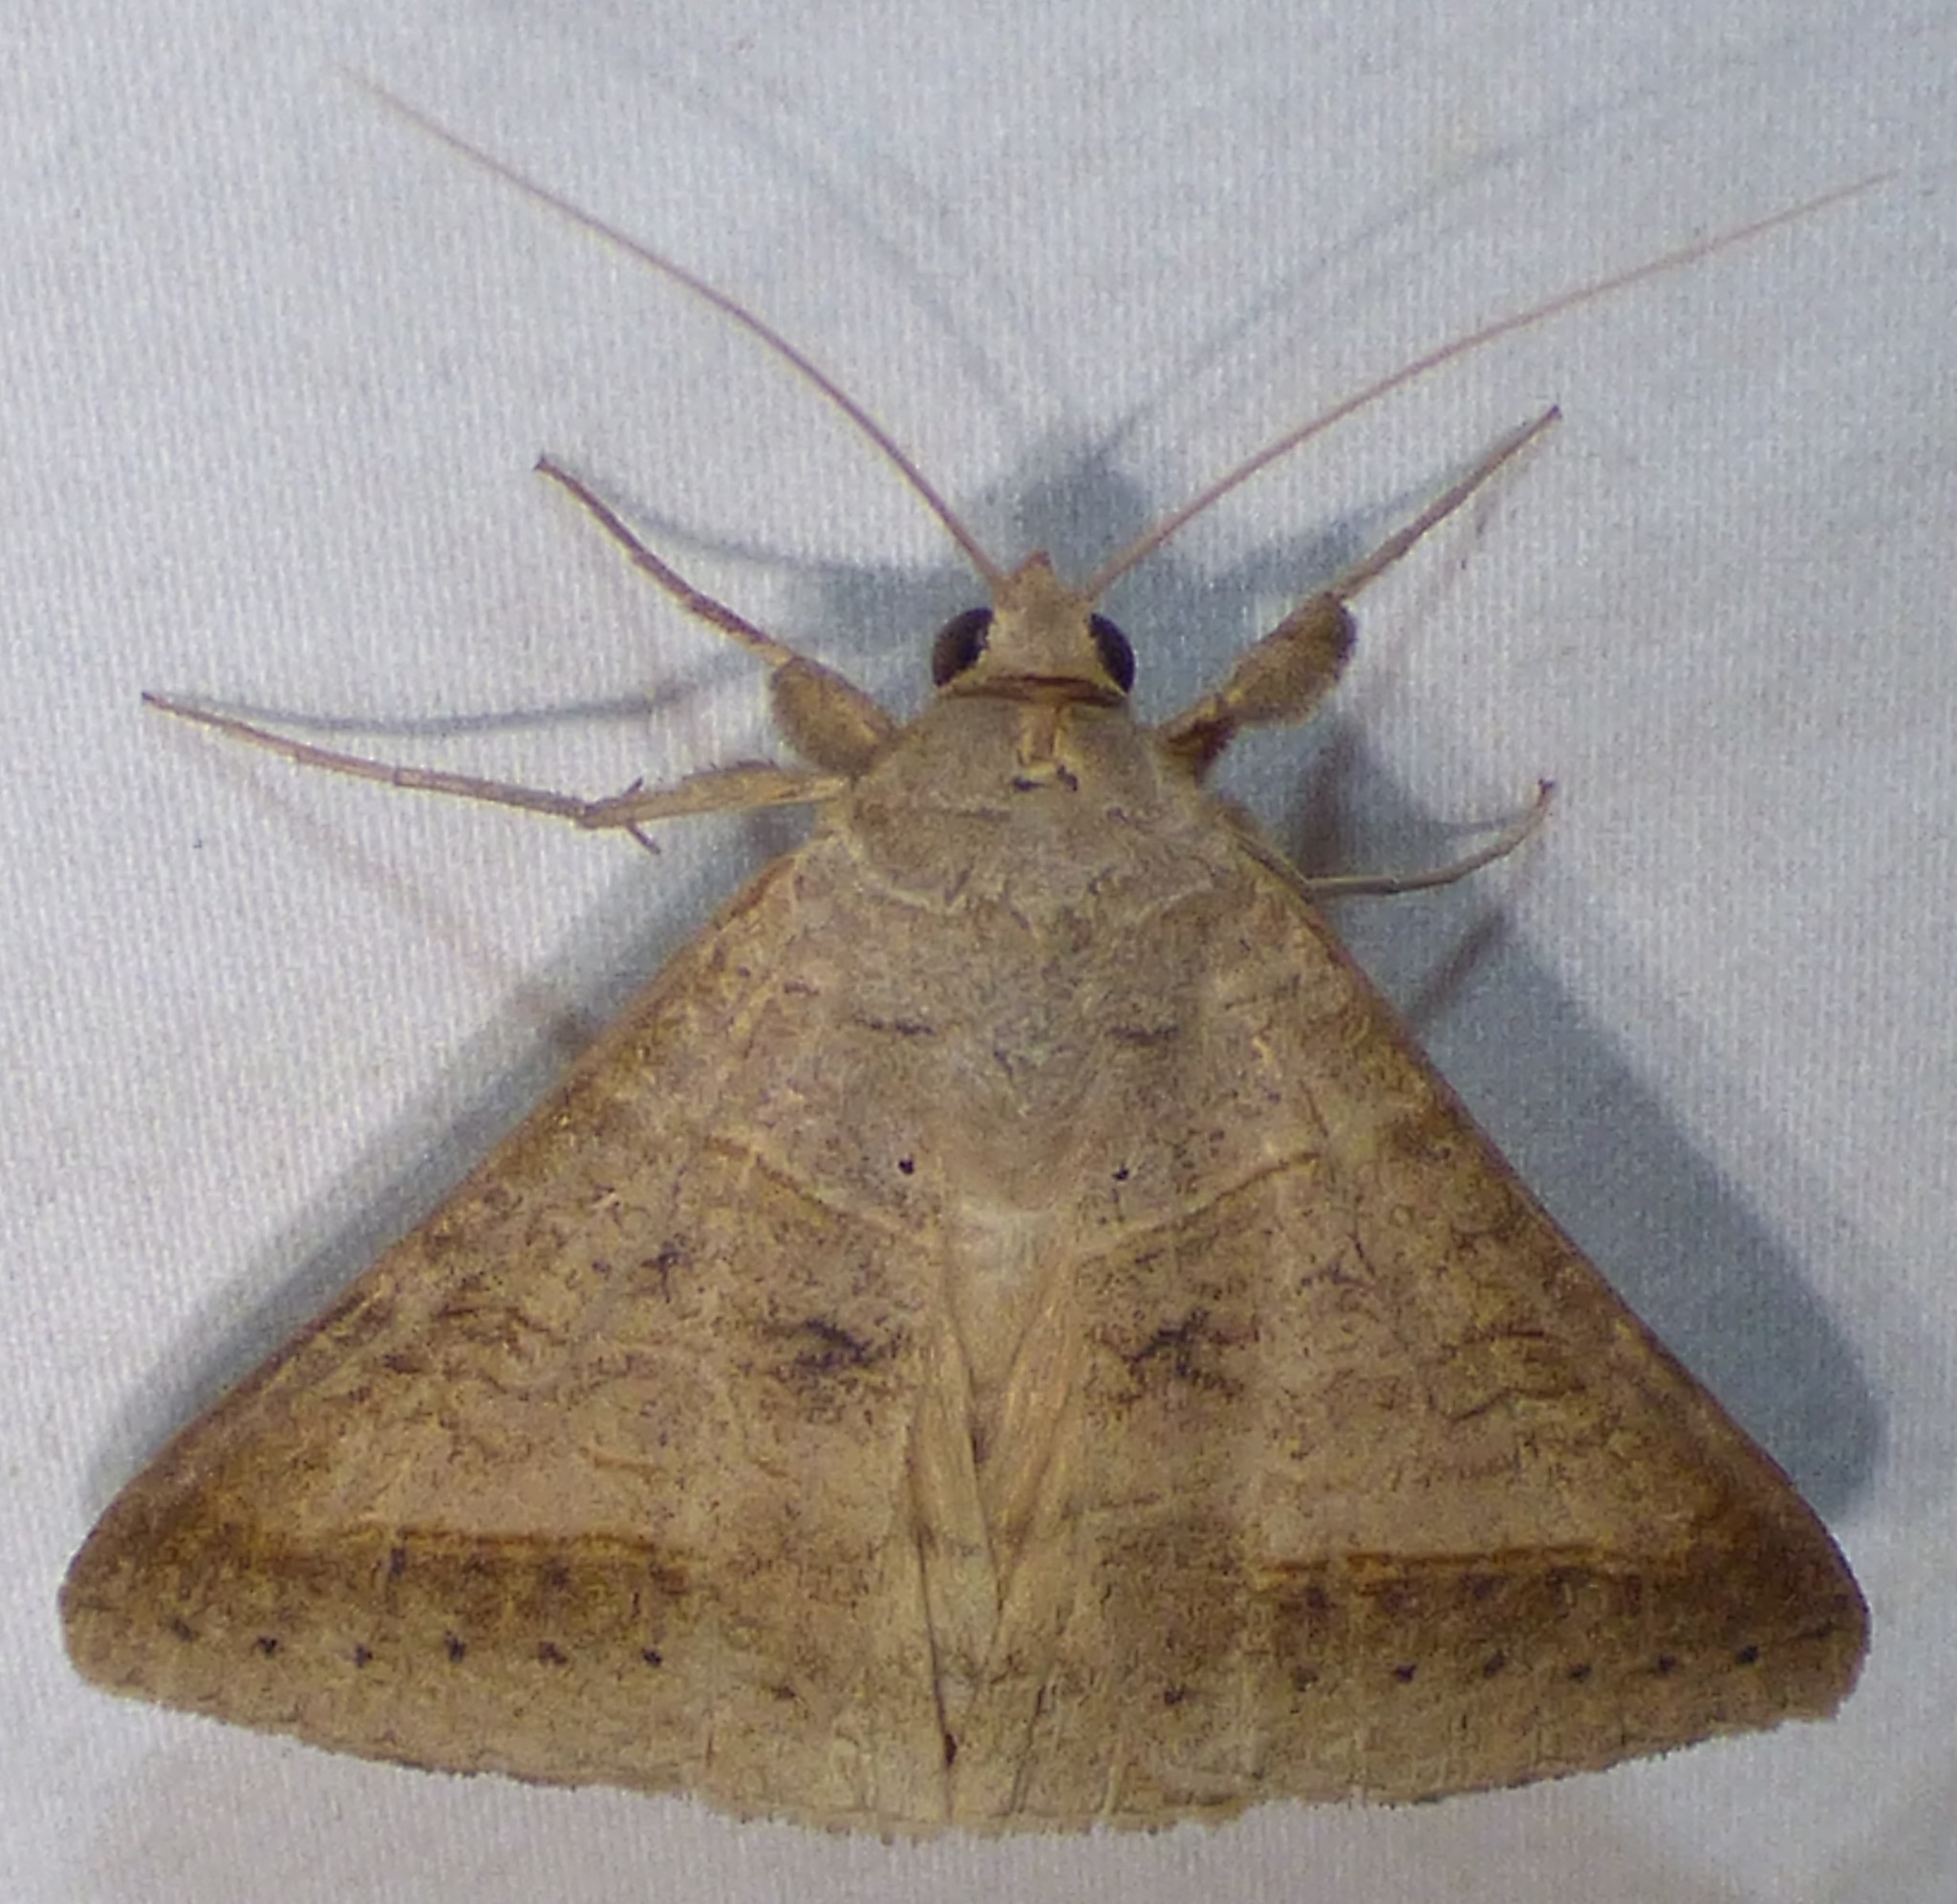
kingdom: Animalia
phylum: Arthropoda
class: Insecta
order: Lepidoptera
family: Erebidae
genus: Mocis
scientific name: Mocis marcida
